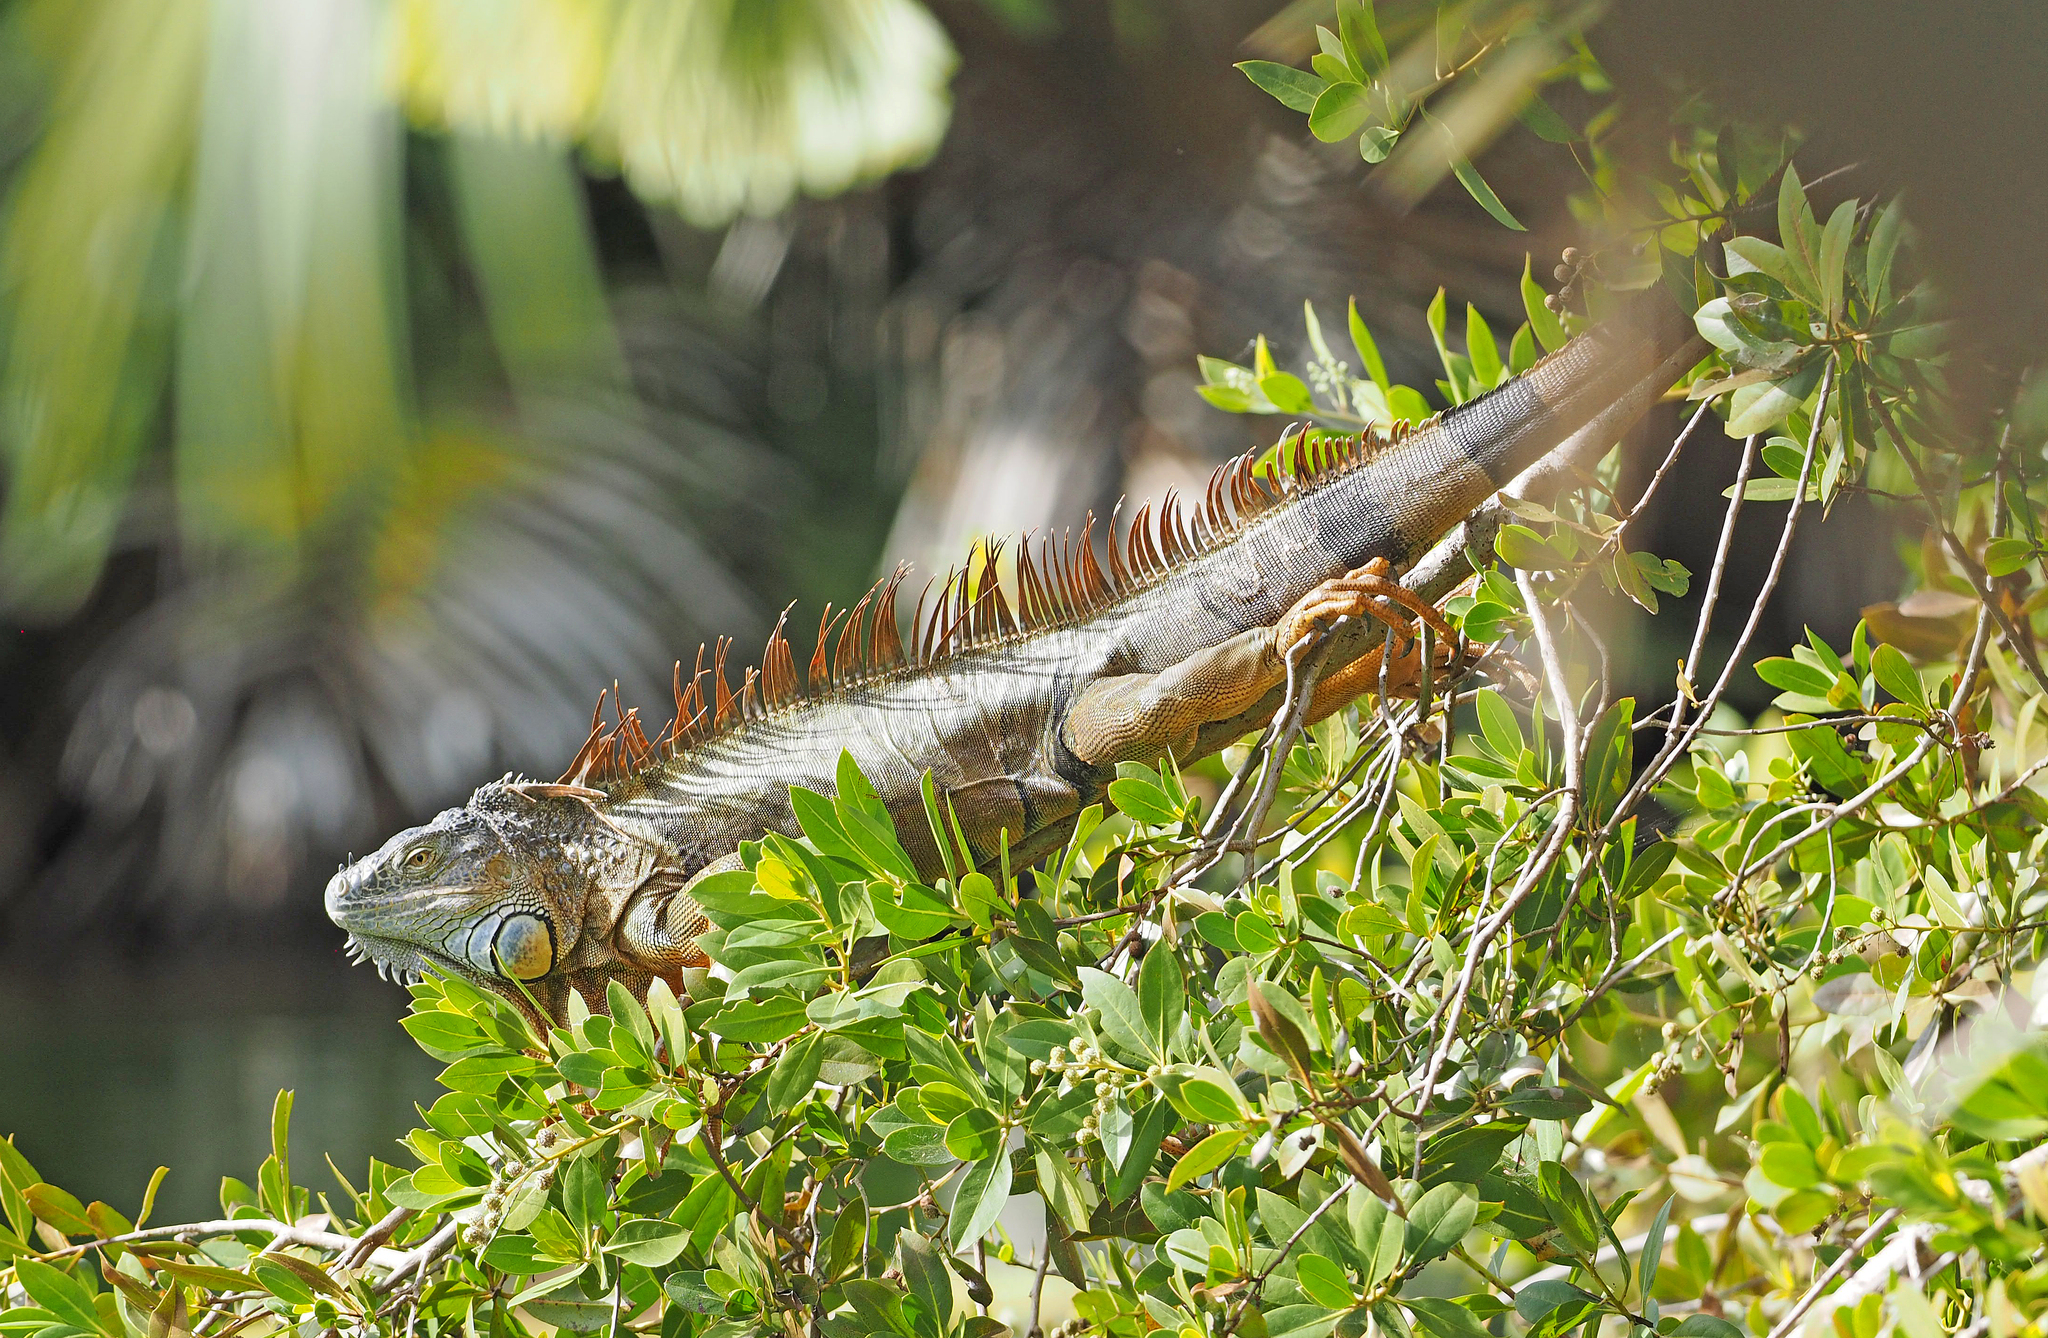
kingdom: Animalia
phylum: Chordata
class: Squamata
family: Iguanidae
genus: Iguana
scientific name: Iguana iguana
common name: Green iguana
